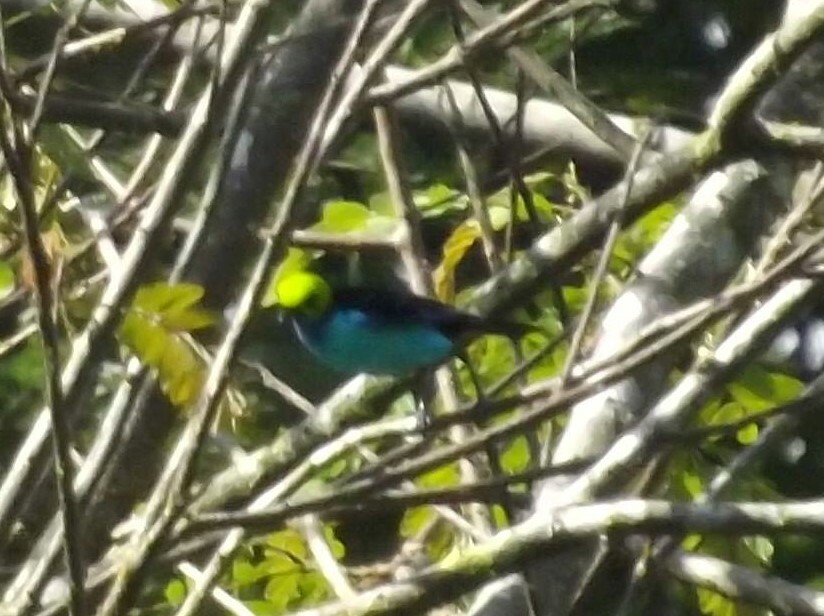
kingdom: Animalia
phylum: Chordata
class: Aves
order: Passeriformes
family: Thraupidae
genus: Tangara
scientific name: Tangara chilensis
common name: Paradise tanager
